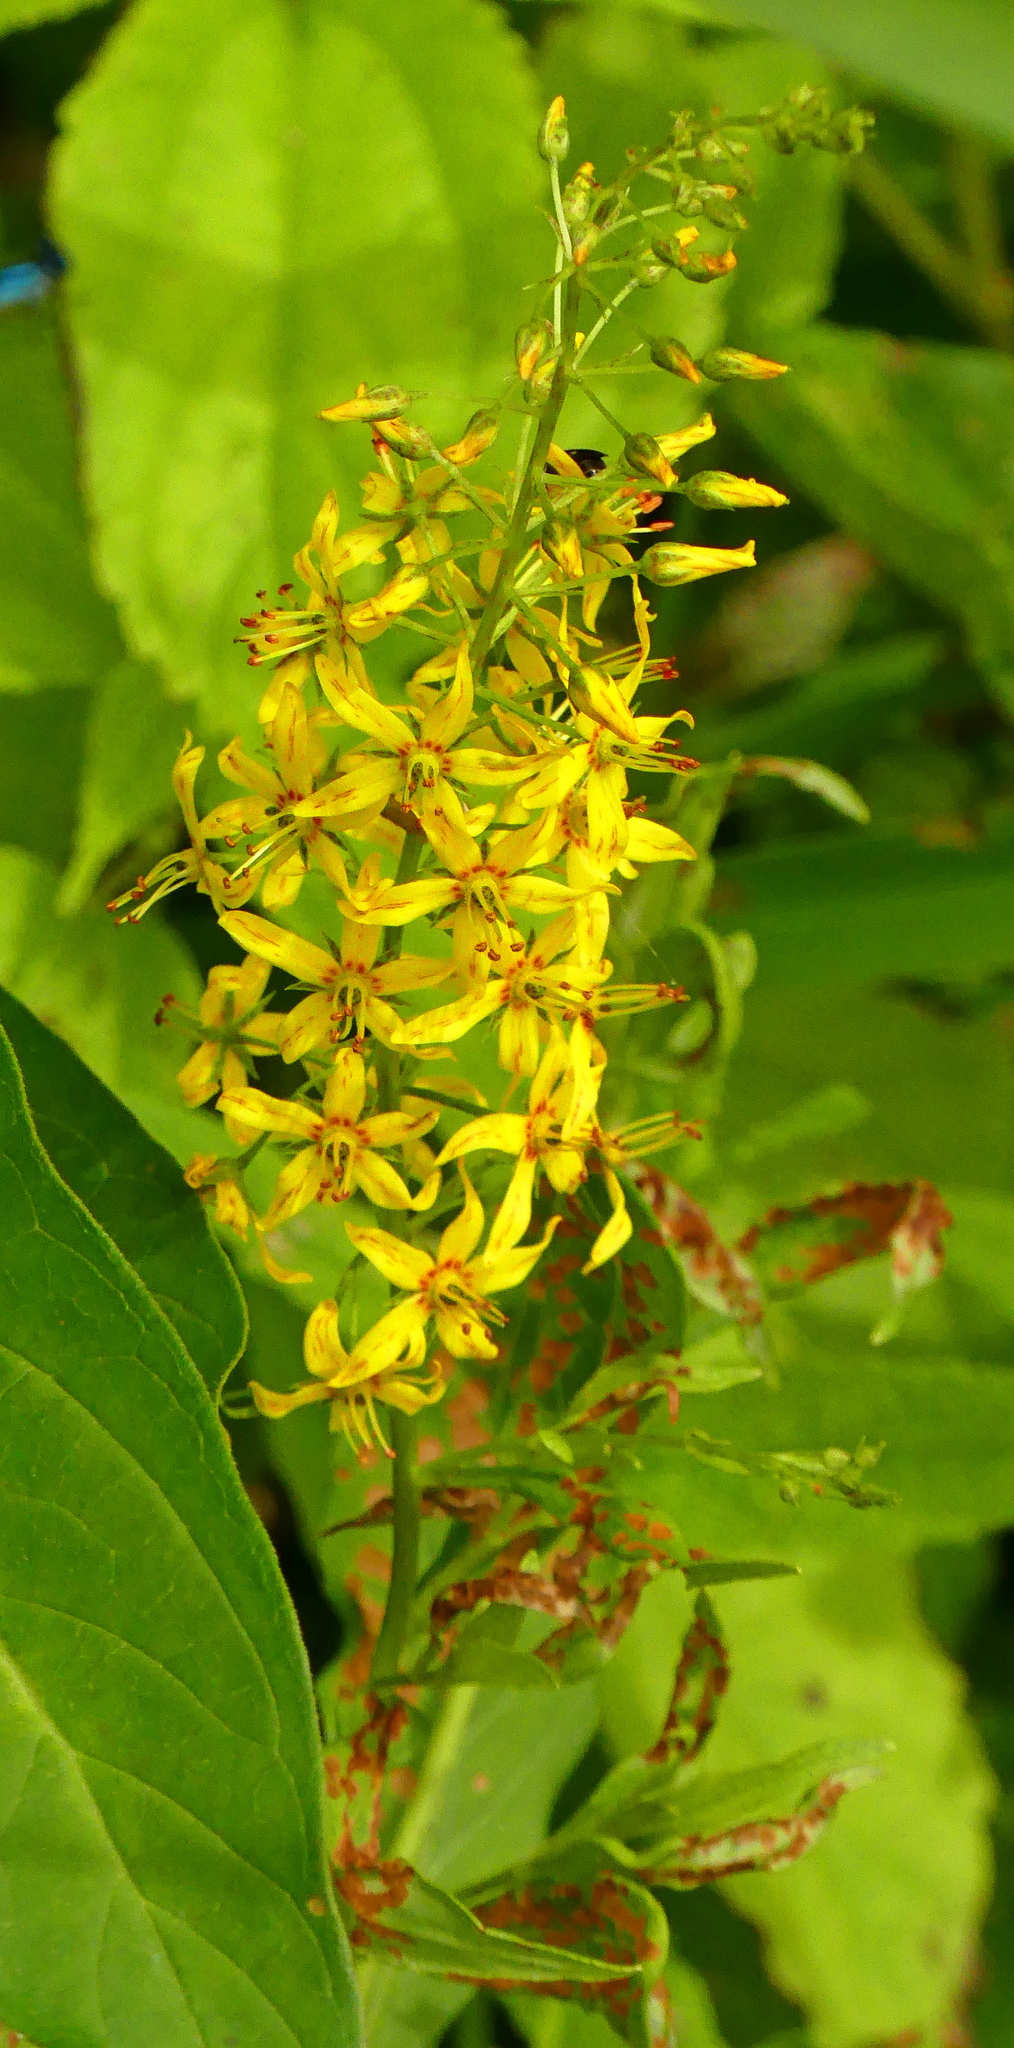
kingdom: Plantae
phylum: Tracheophyta
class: Magnoliopsida
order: Ericales
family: Primulaceae
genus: Lysimachia
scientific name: Lysimachia terrestris
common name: Lake loosestrife
